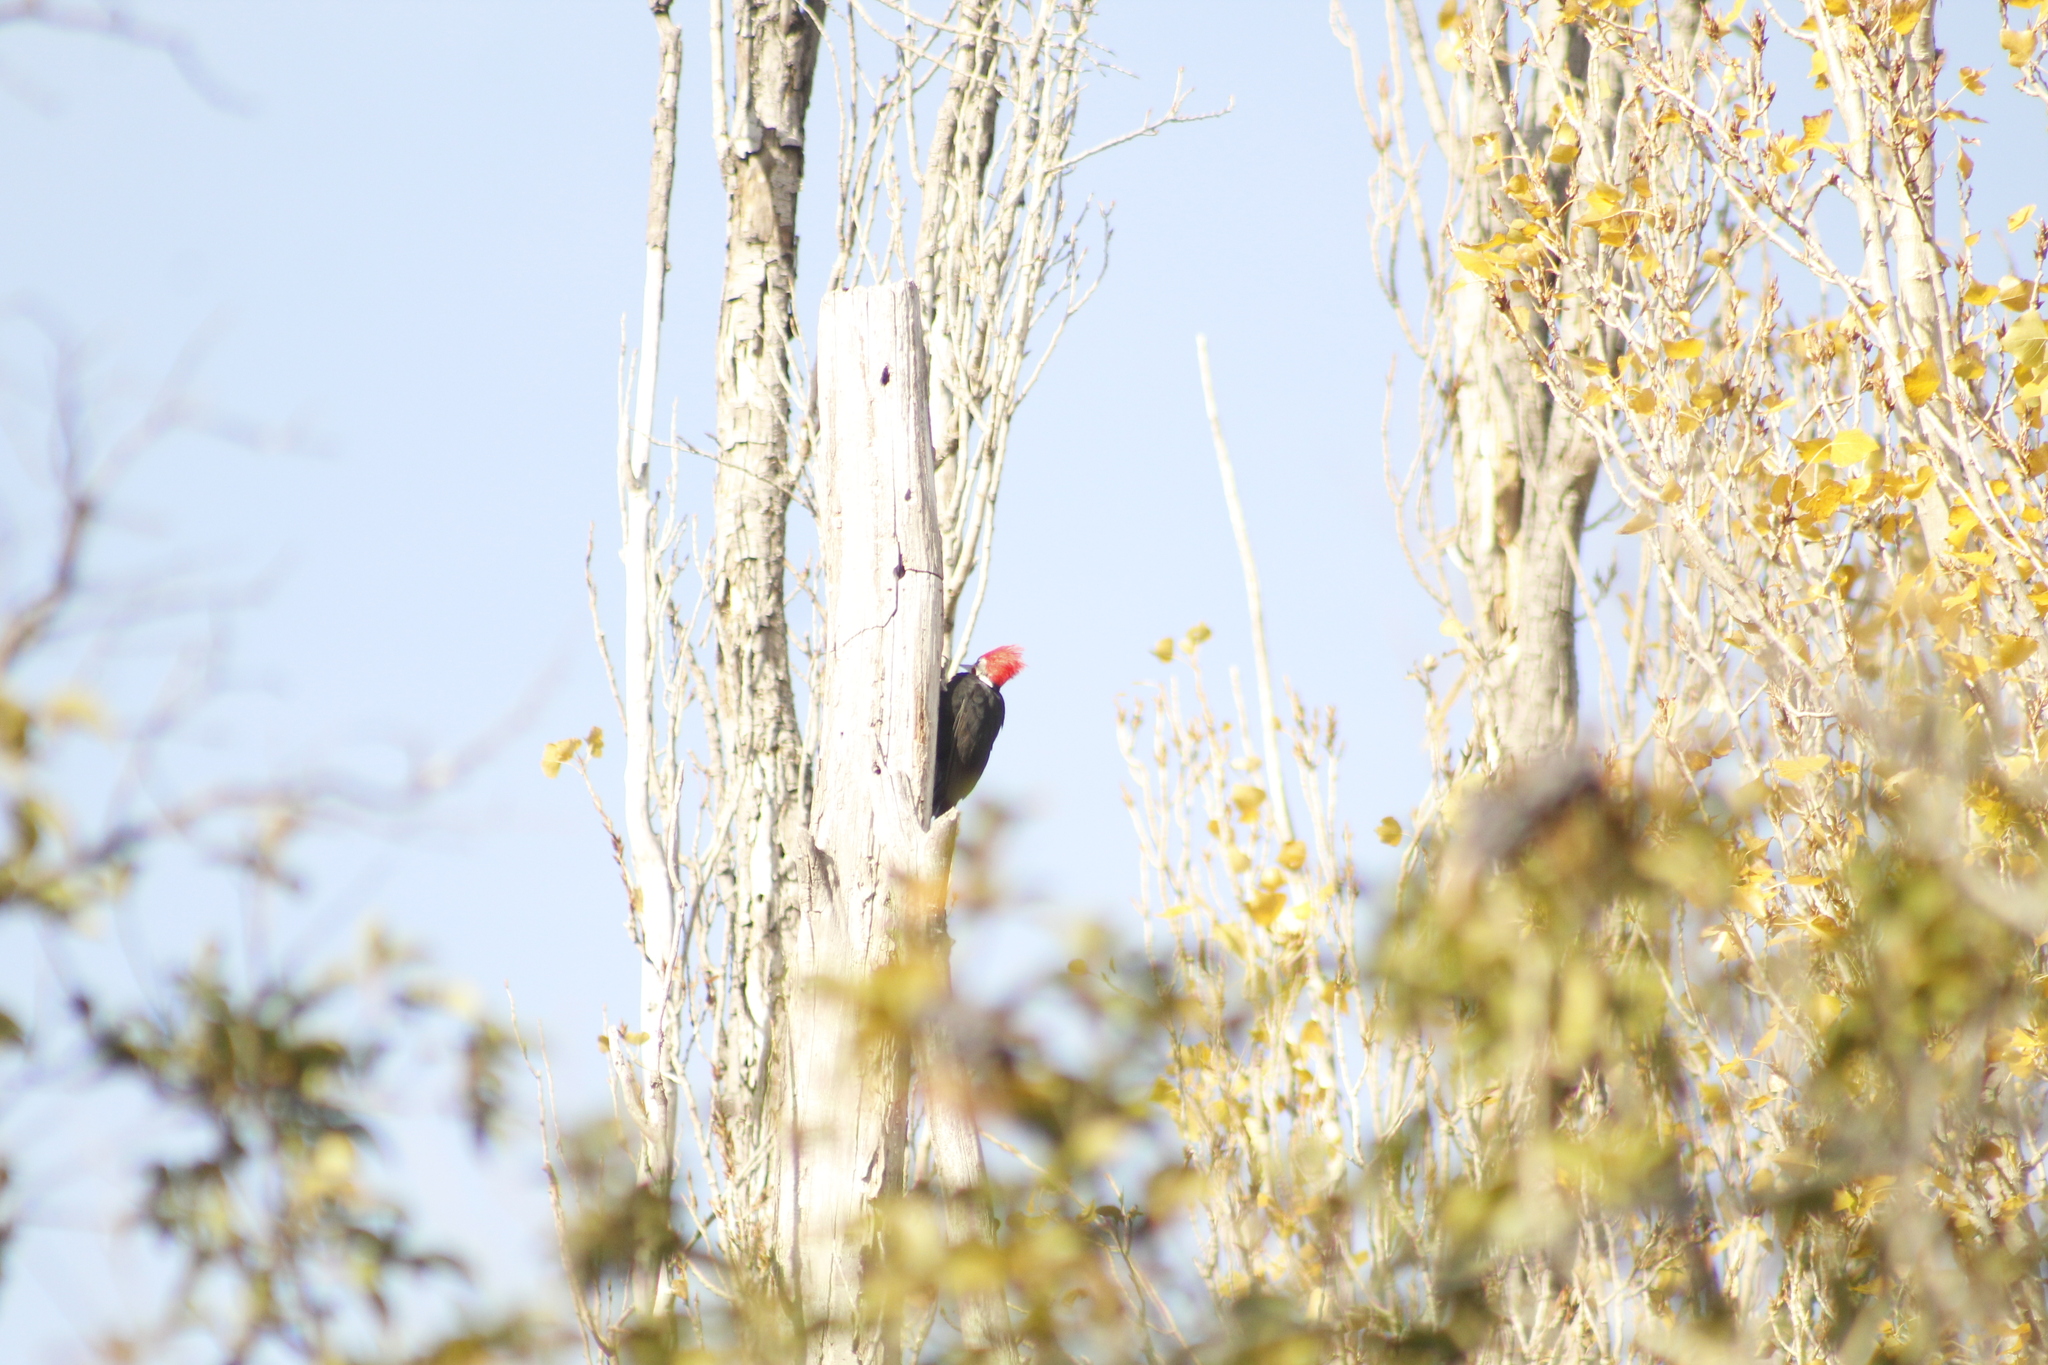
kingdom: Animalia
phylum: Chordata
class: Aves
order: Piciformes
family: Picidae
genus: Dryocopus
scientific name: Dryocopus schulzii
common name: Black-bodied woodpecker
